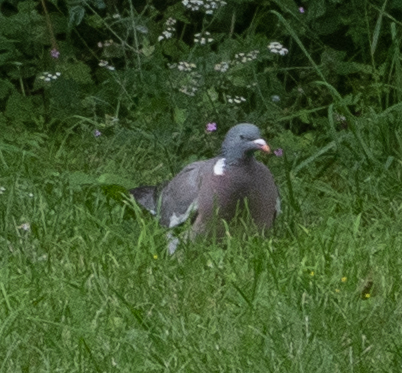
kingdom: Animalia
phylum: Chordata
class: Aves
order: Columbiformes
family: Columbidae
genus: Columba
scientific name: Columba palumbus
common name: Common wood pigeon
